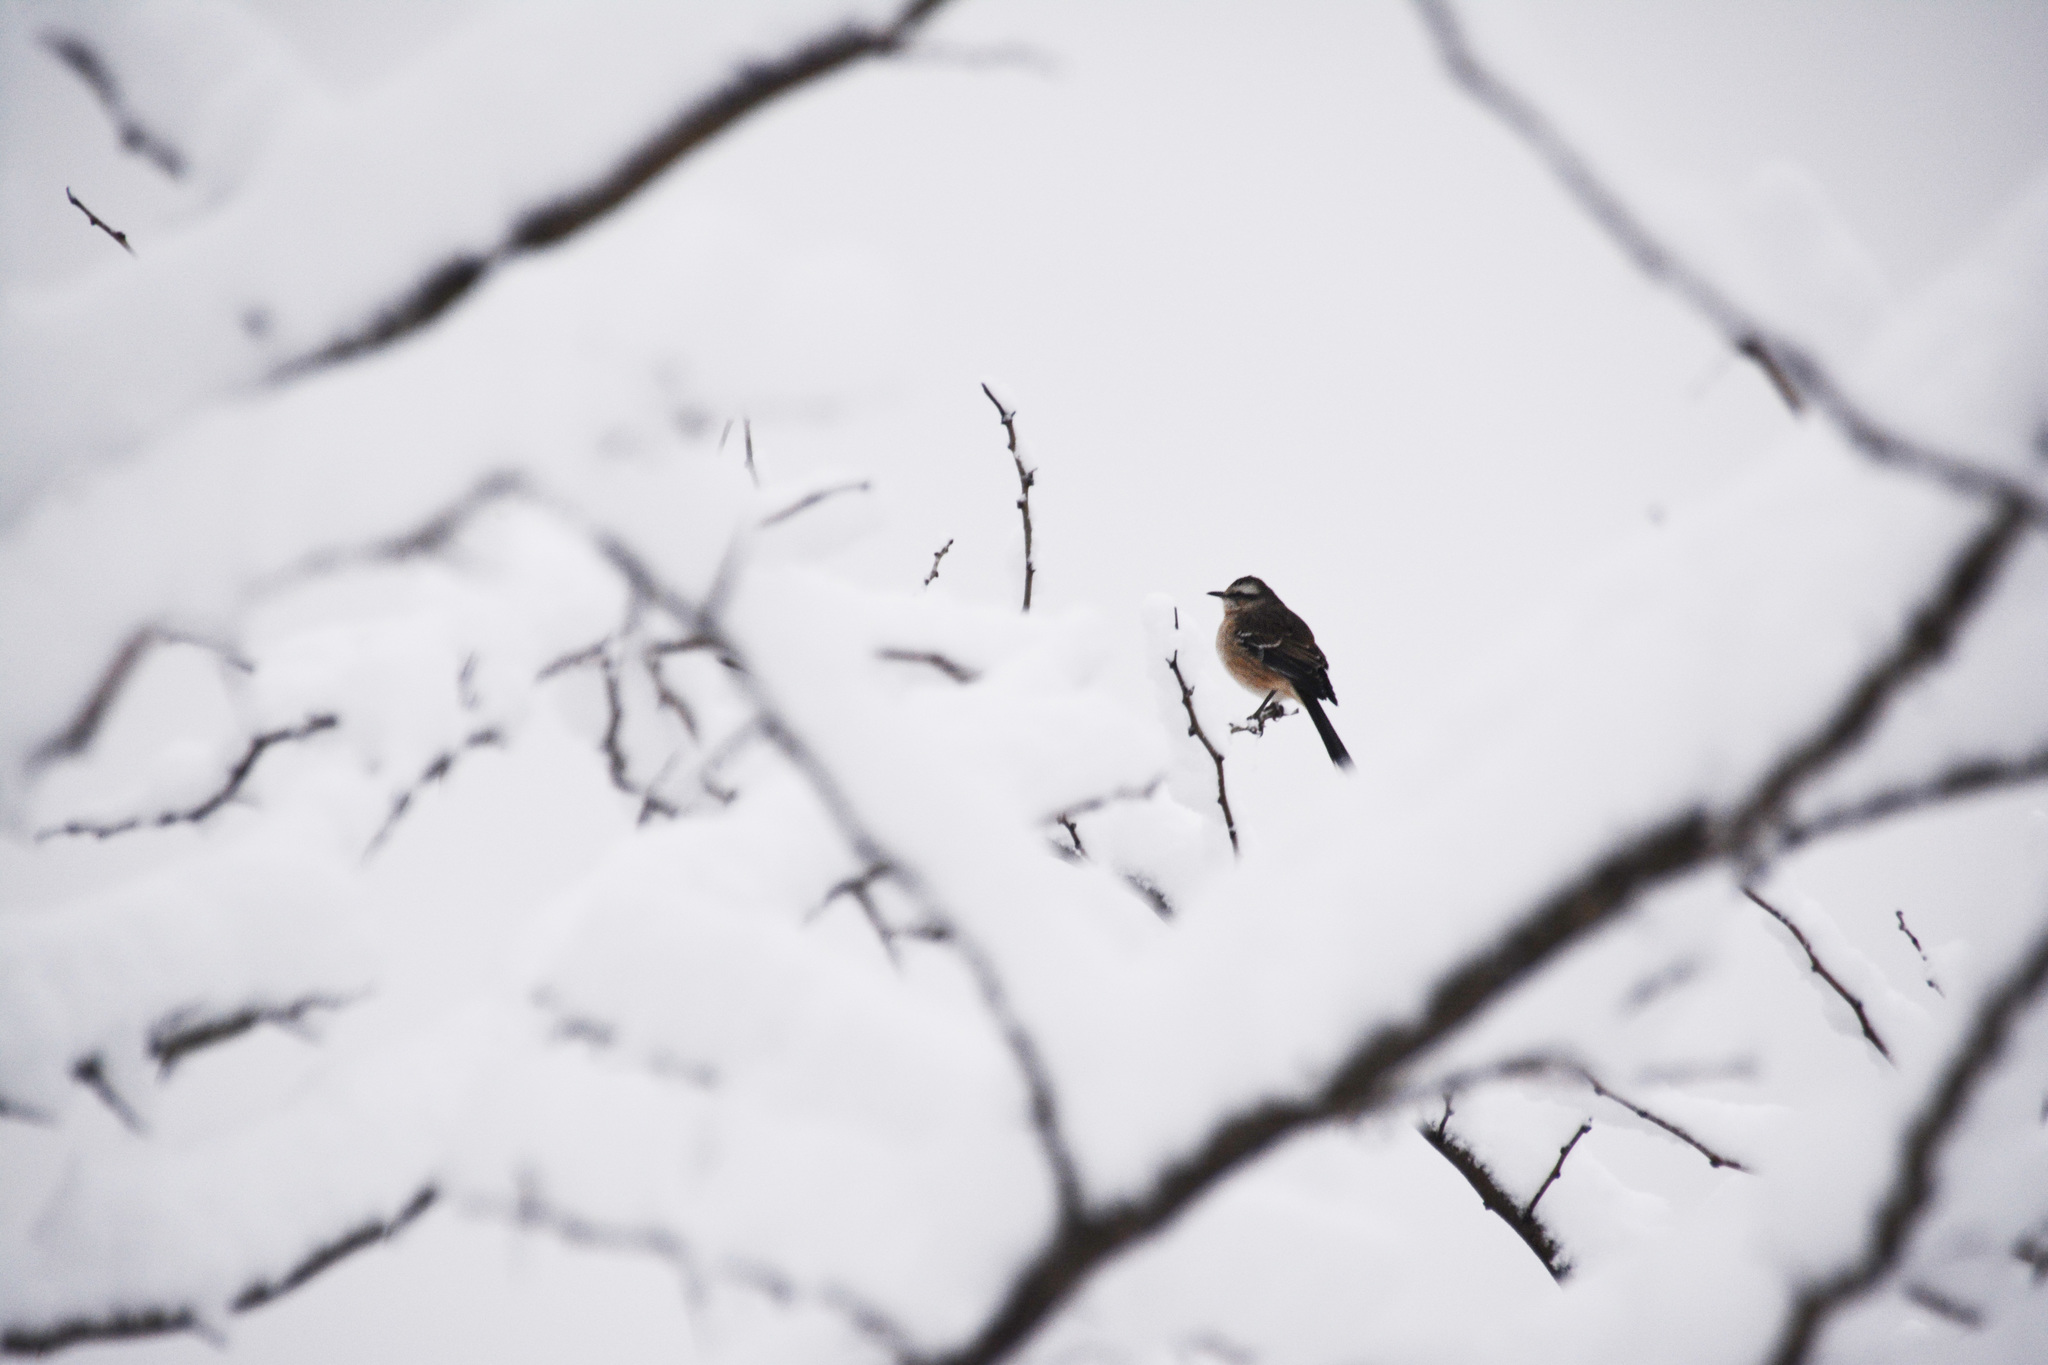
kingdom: Animalia
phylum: Chordata
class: Aves
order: Passeriformes
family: Mimidae
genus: Mimus
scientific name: Mimus saturninus
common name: Chalk-browed mockingbird
